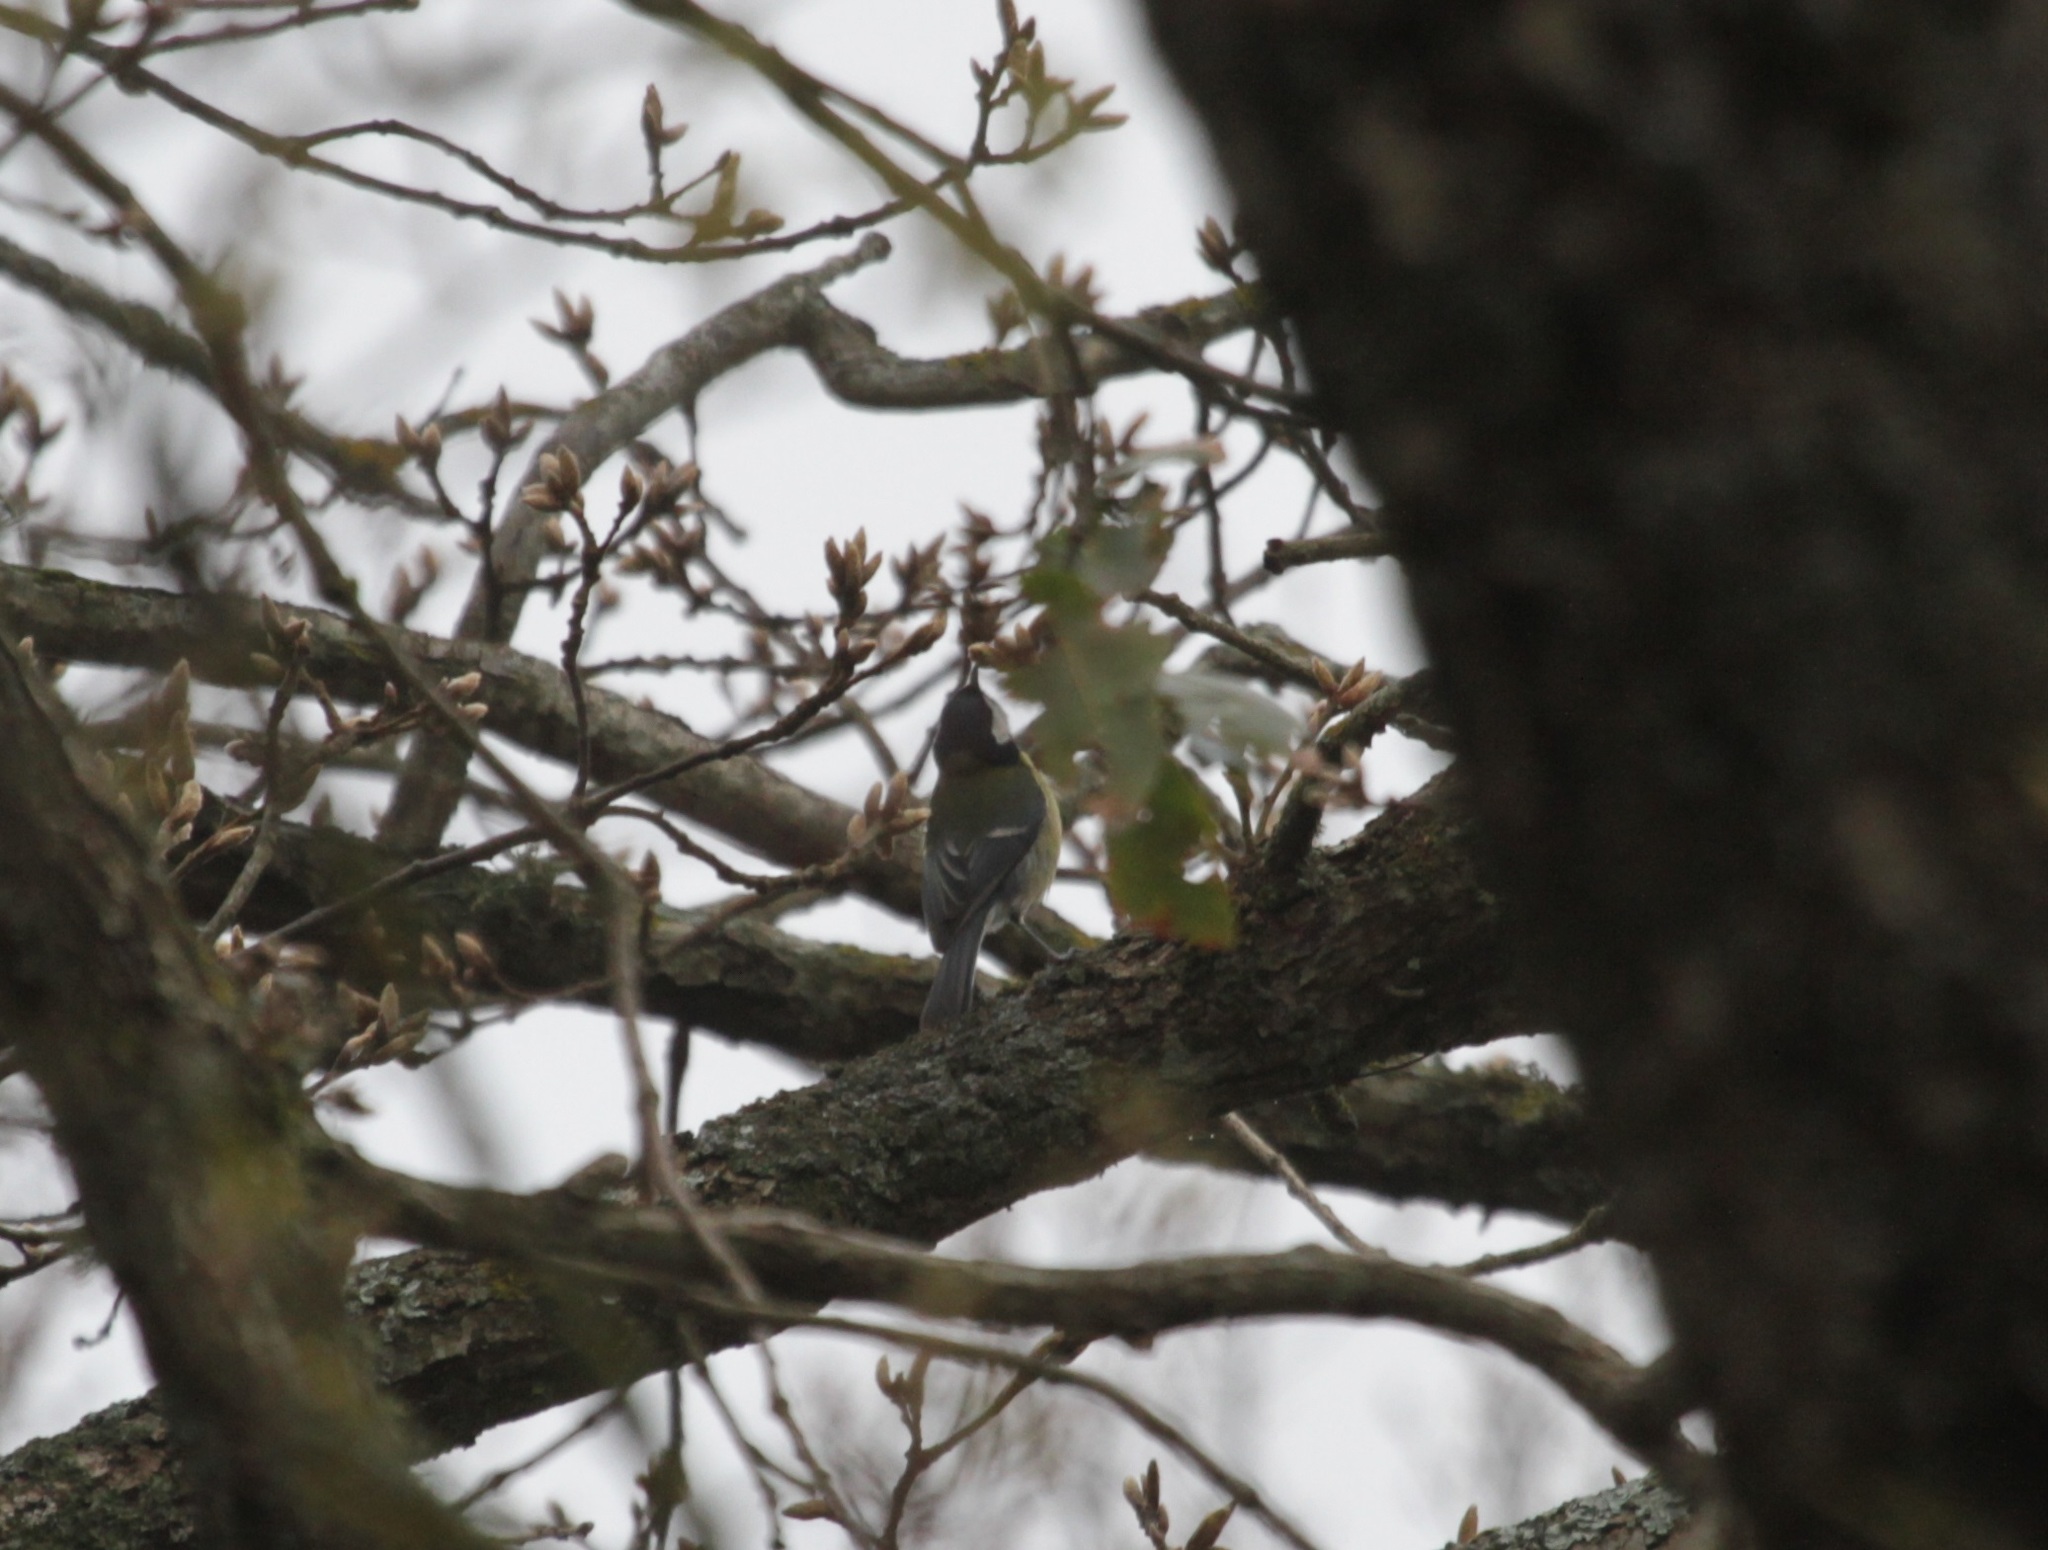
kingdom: Animalia
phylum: Chordata
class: Aves
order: Passeriformes
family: Paridae
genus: Parus
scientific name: Parus major
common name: Great tit
